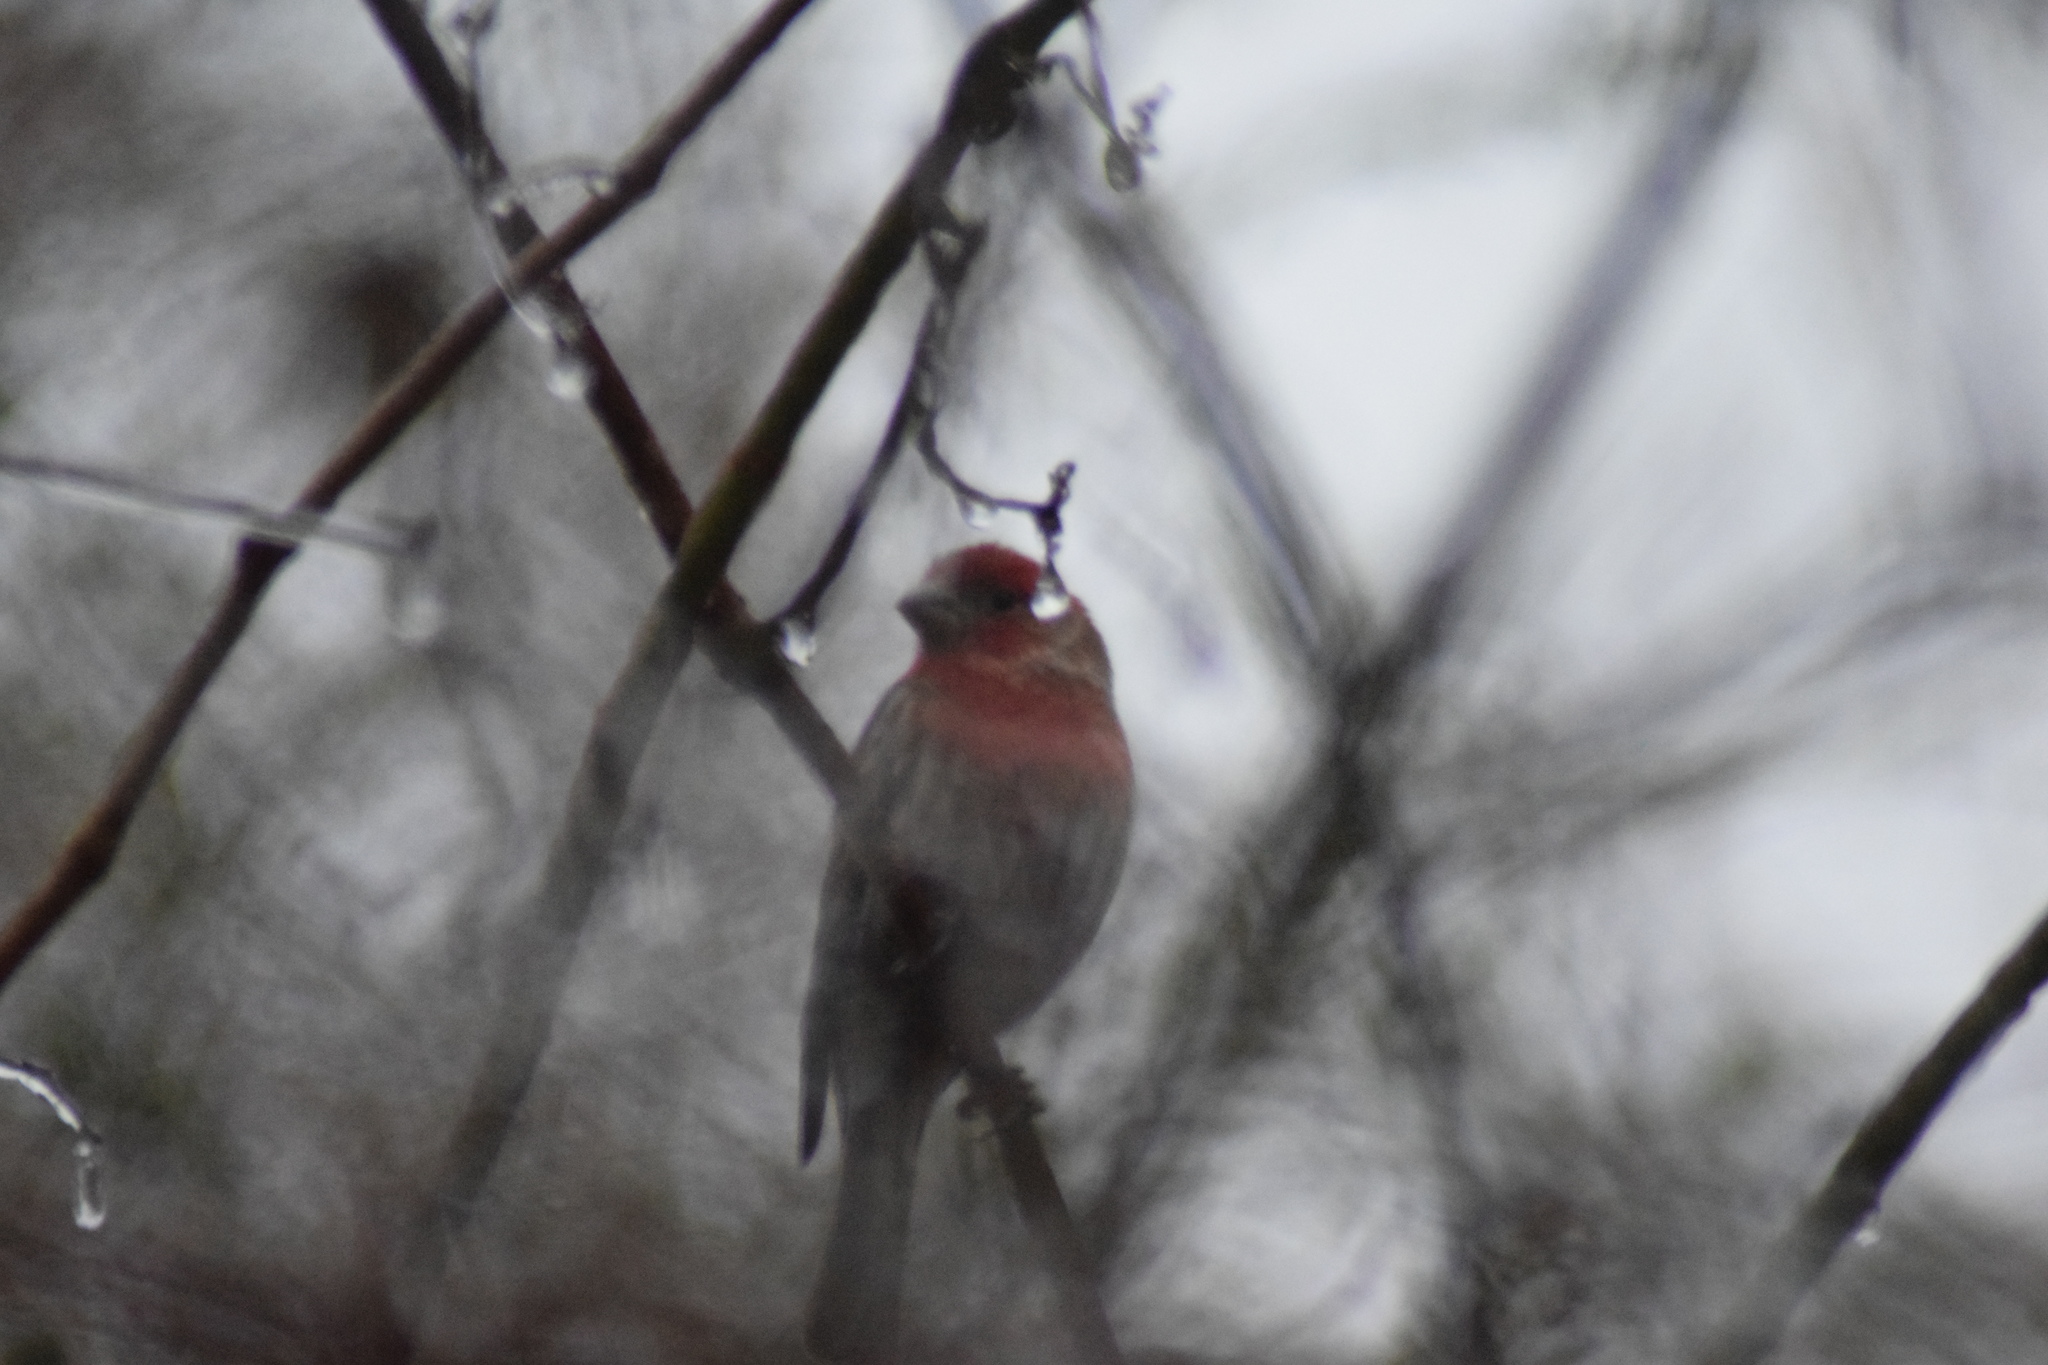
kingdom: Animalia
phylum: Chordata
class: Aves
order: Passeriformes
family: Fringillidae
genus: Haemorhous
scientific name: Haemorhous mexicanus
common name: House finch
